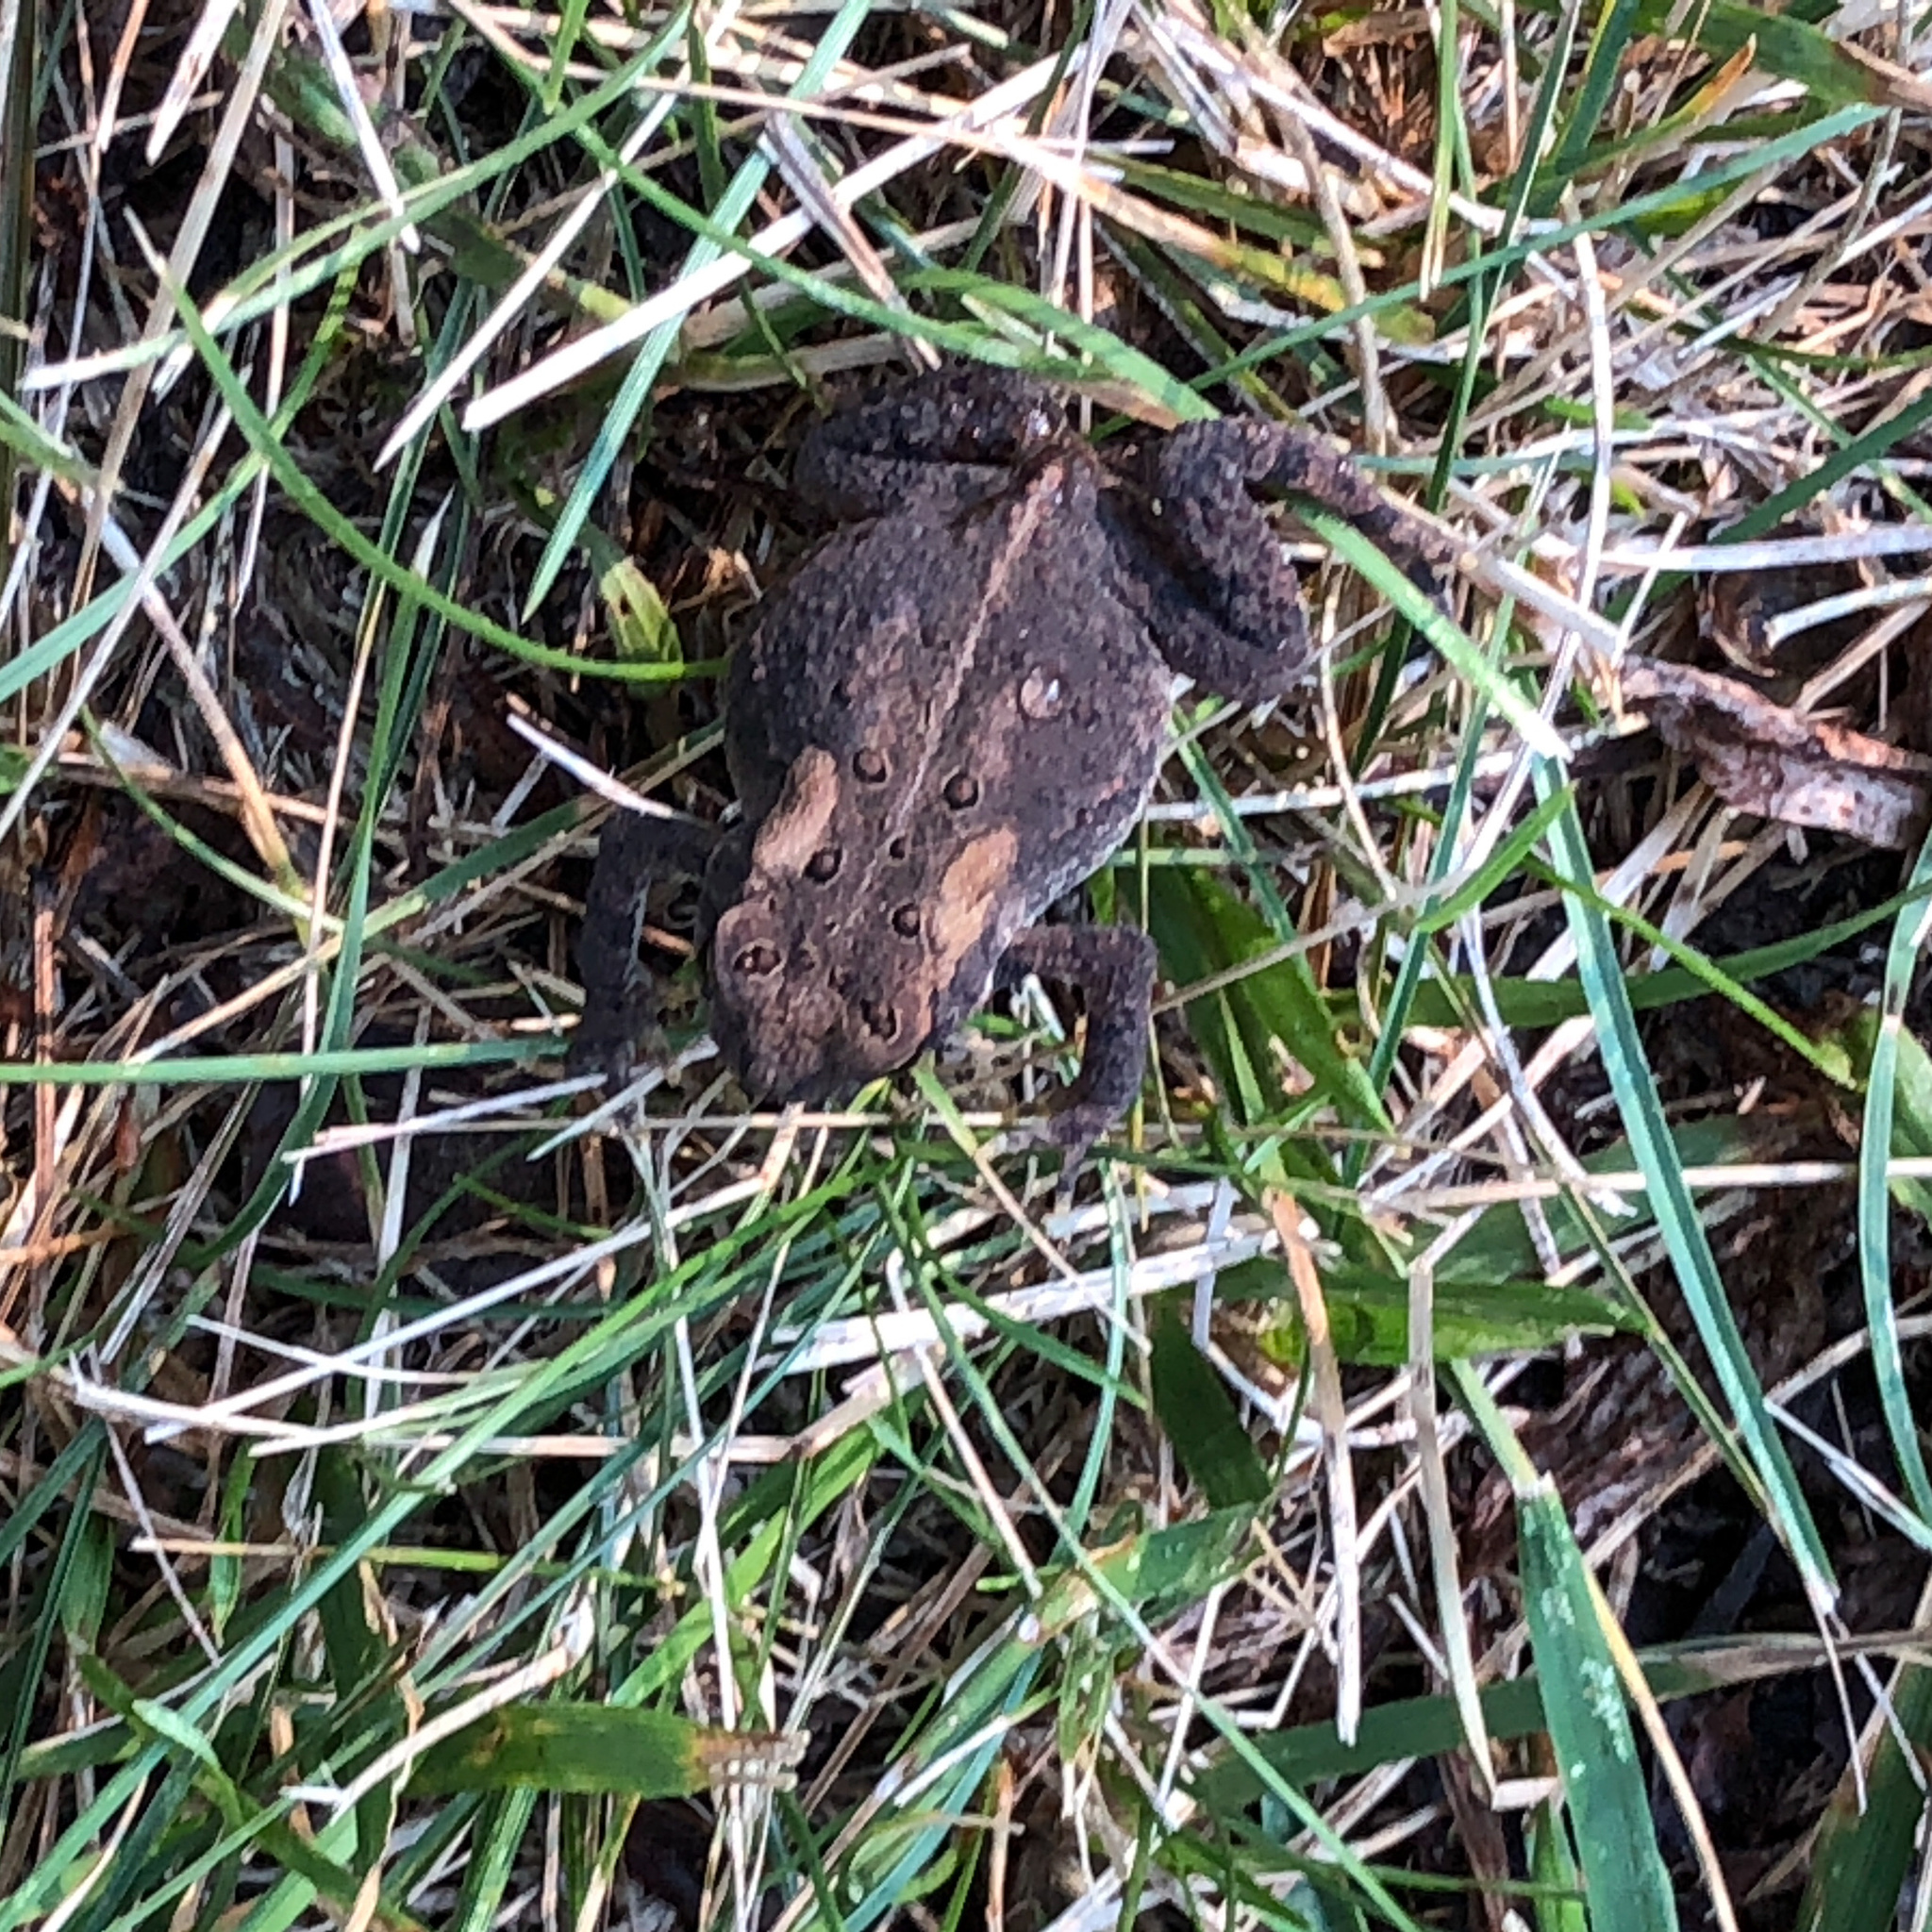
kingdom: Animalia
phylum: Chordata
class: Amphibia
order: Anura
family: Bufonidae
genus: Anaxyrus
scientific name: Anaxyrus americanus
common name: American toad
